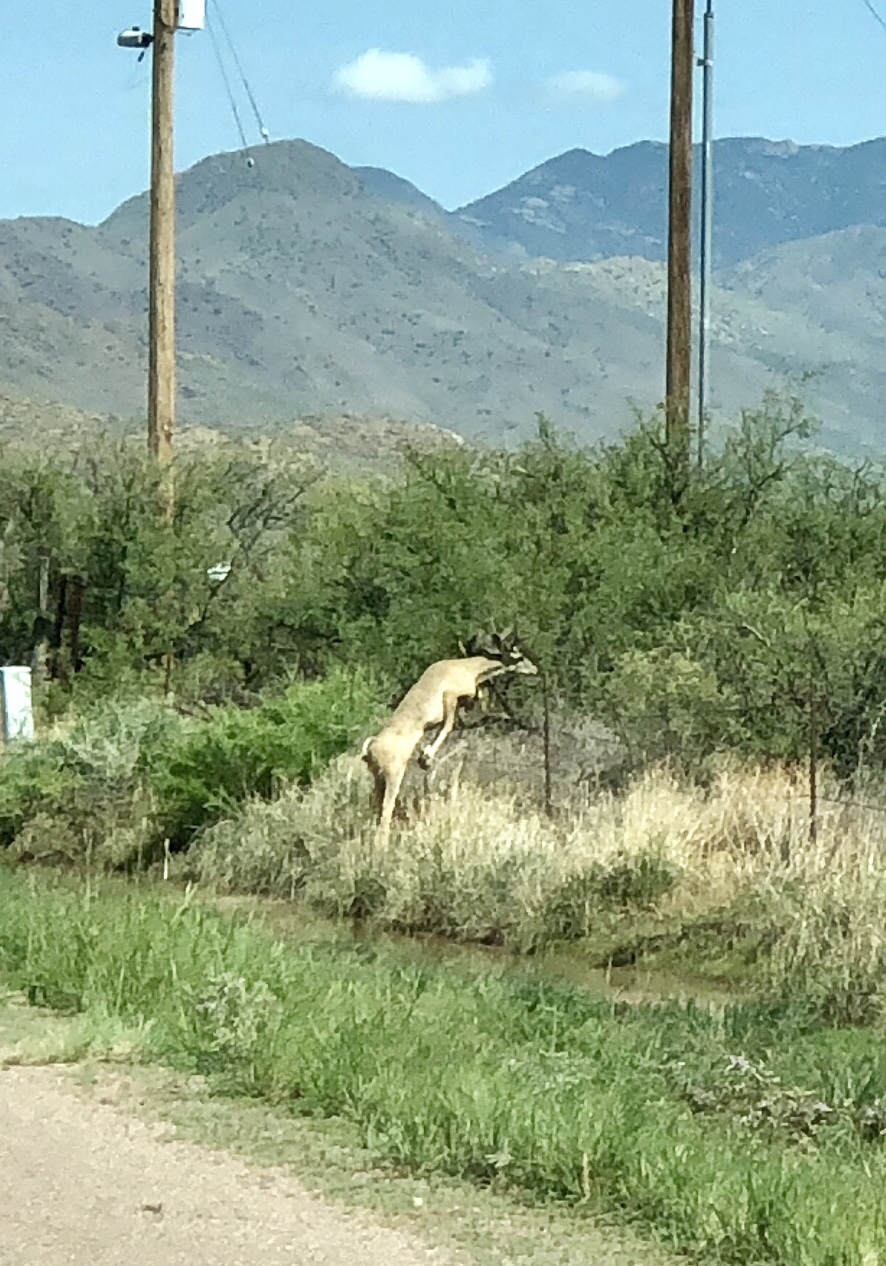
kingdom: Animalia
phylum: Chordata
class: Mammalia
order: Artiodactyla
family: Cervidae
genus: Odocoileus
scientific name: Odocoileus hemionus
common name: Mule deer
